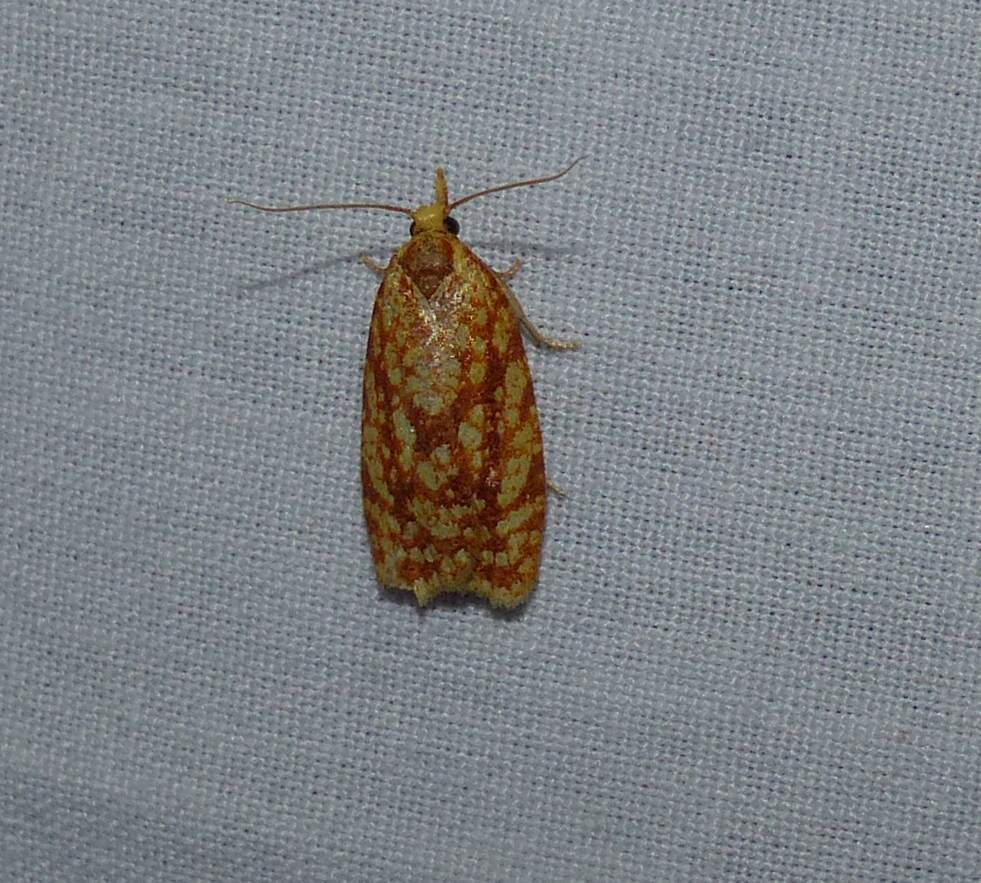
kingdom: Animalia
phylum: Arthropoda
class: Insecta
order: Lepidoptera
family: Tortricidae
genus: Sparganothis
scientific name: Sparganothis sulfureana
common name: Sparganothis fruitworm moth
